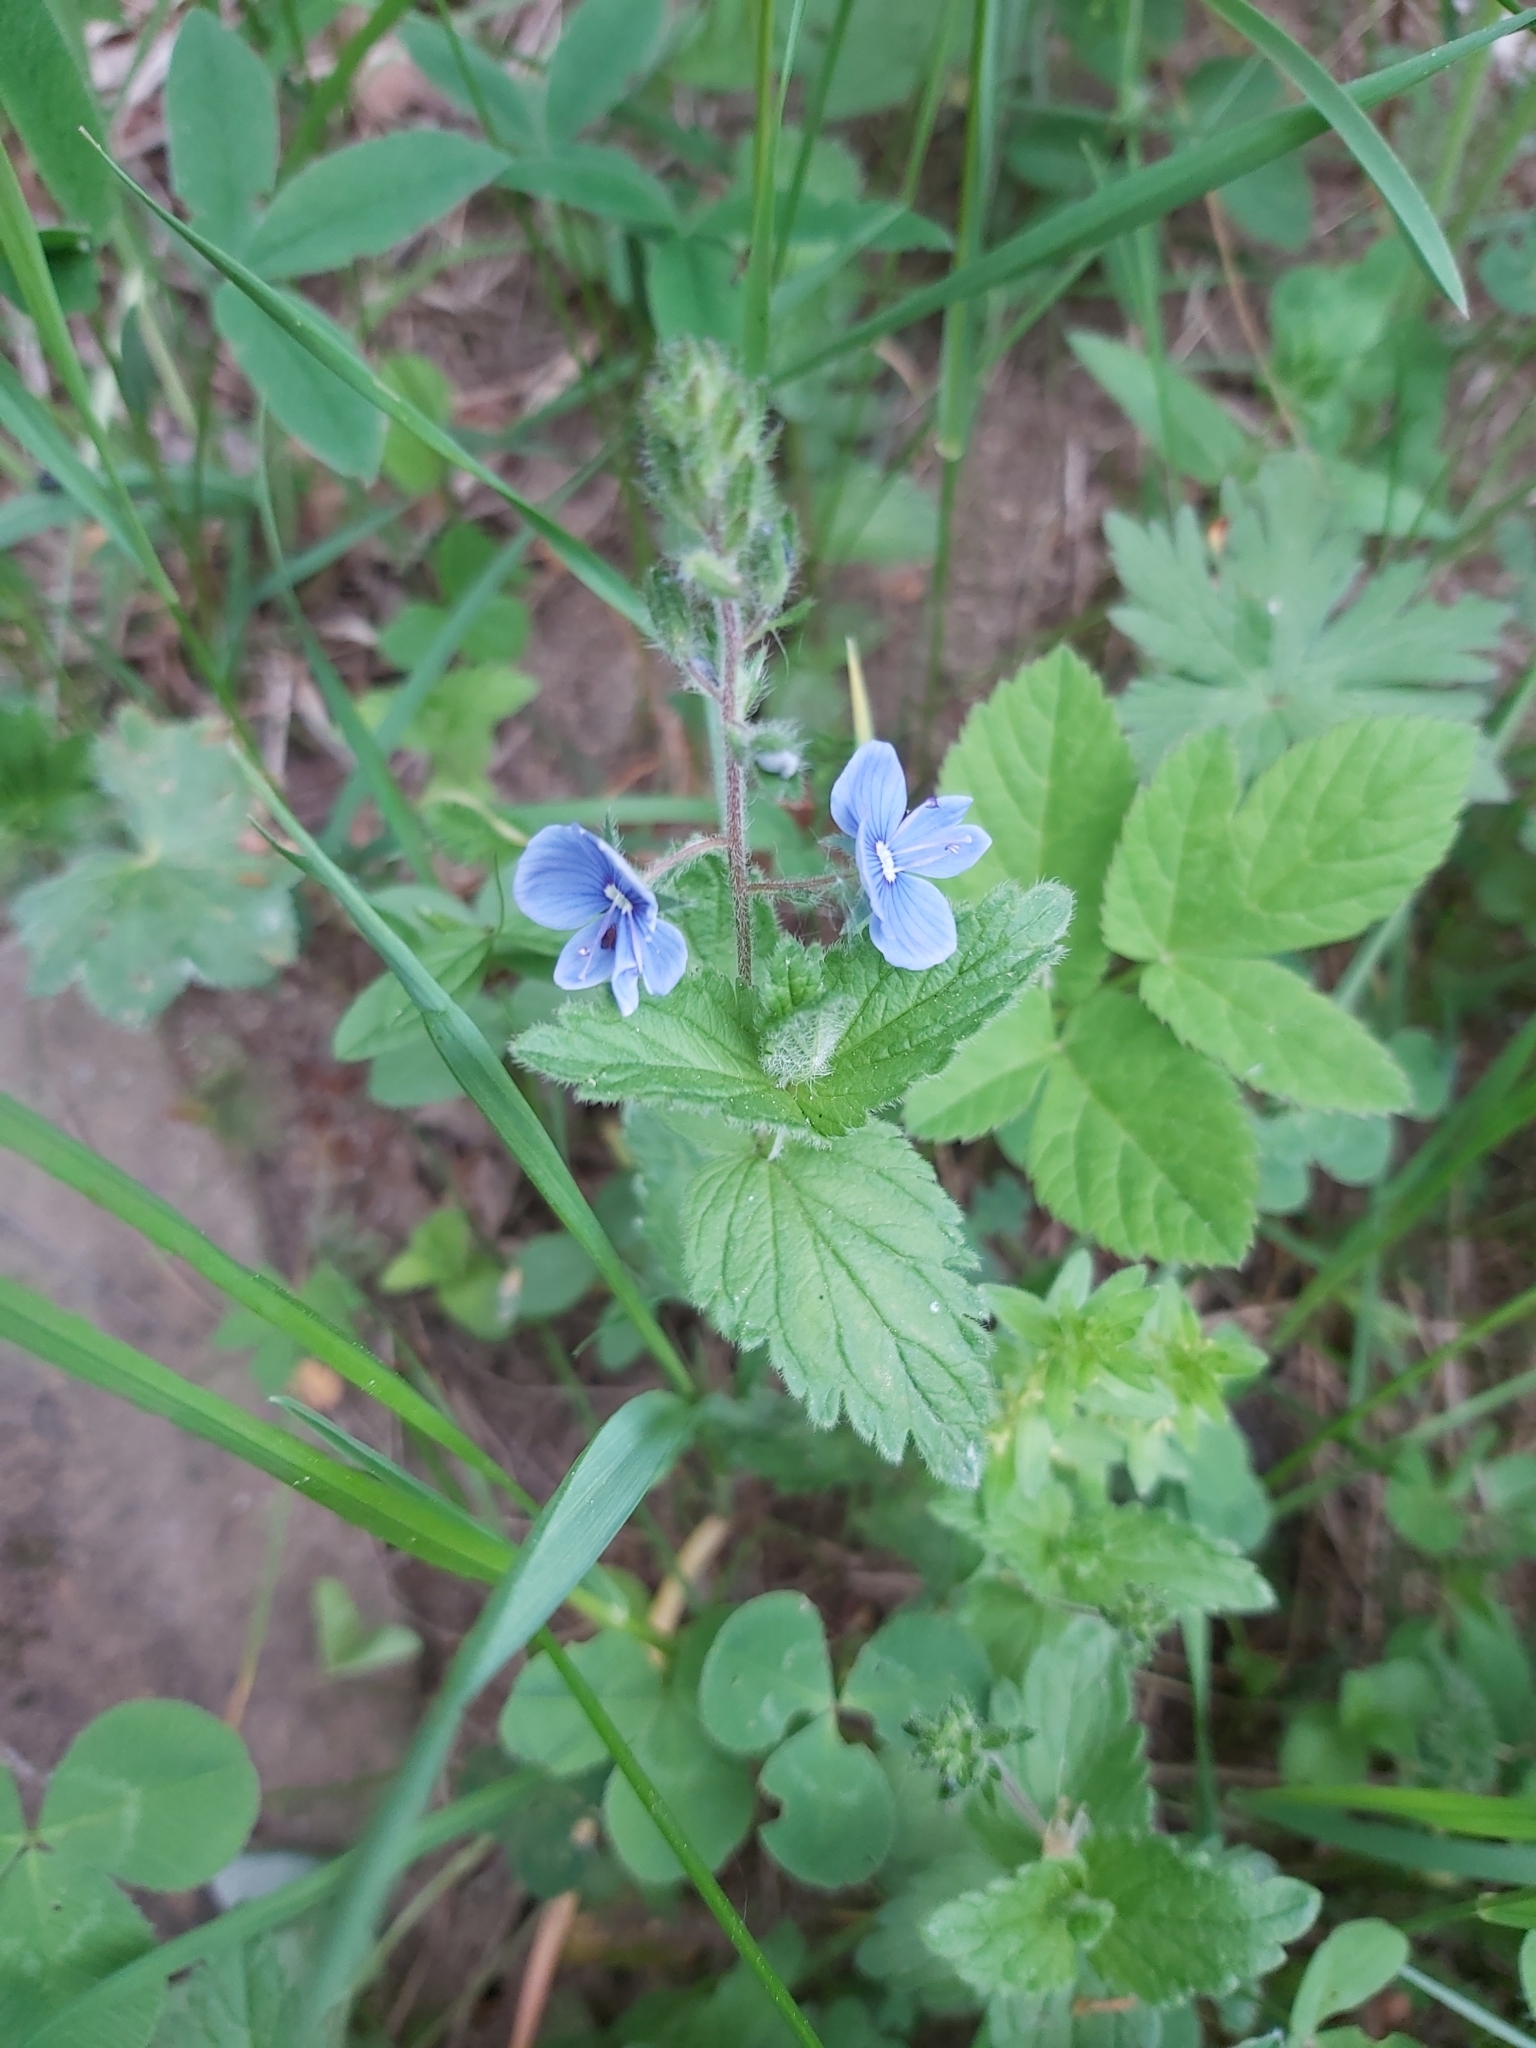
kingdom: Plantae
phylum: Tracheophyta
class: Magnoliopsida
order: Lamiales
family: Plantaginaceae
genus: Veronica
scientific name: Veronica chamaedrys
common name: Germander speedwell
